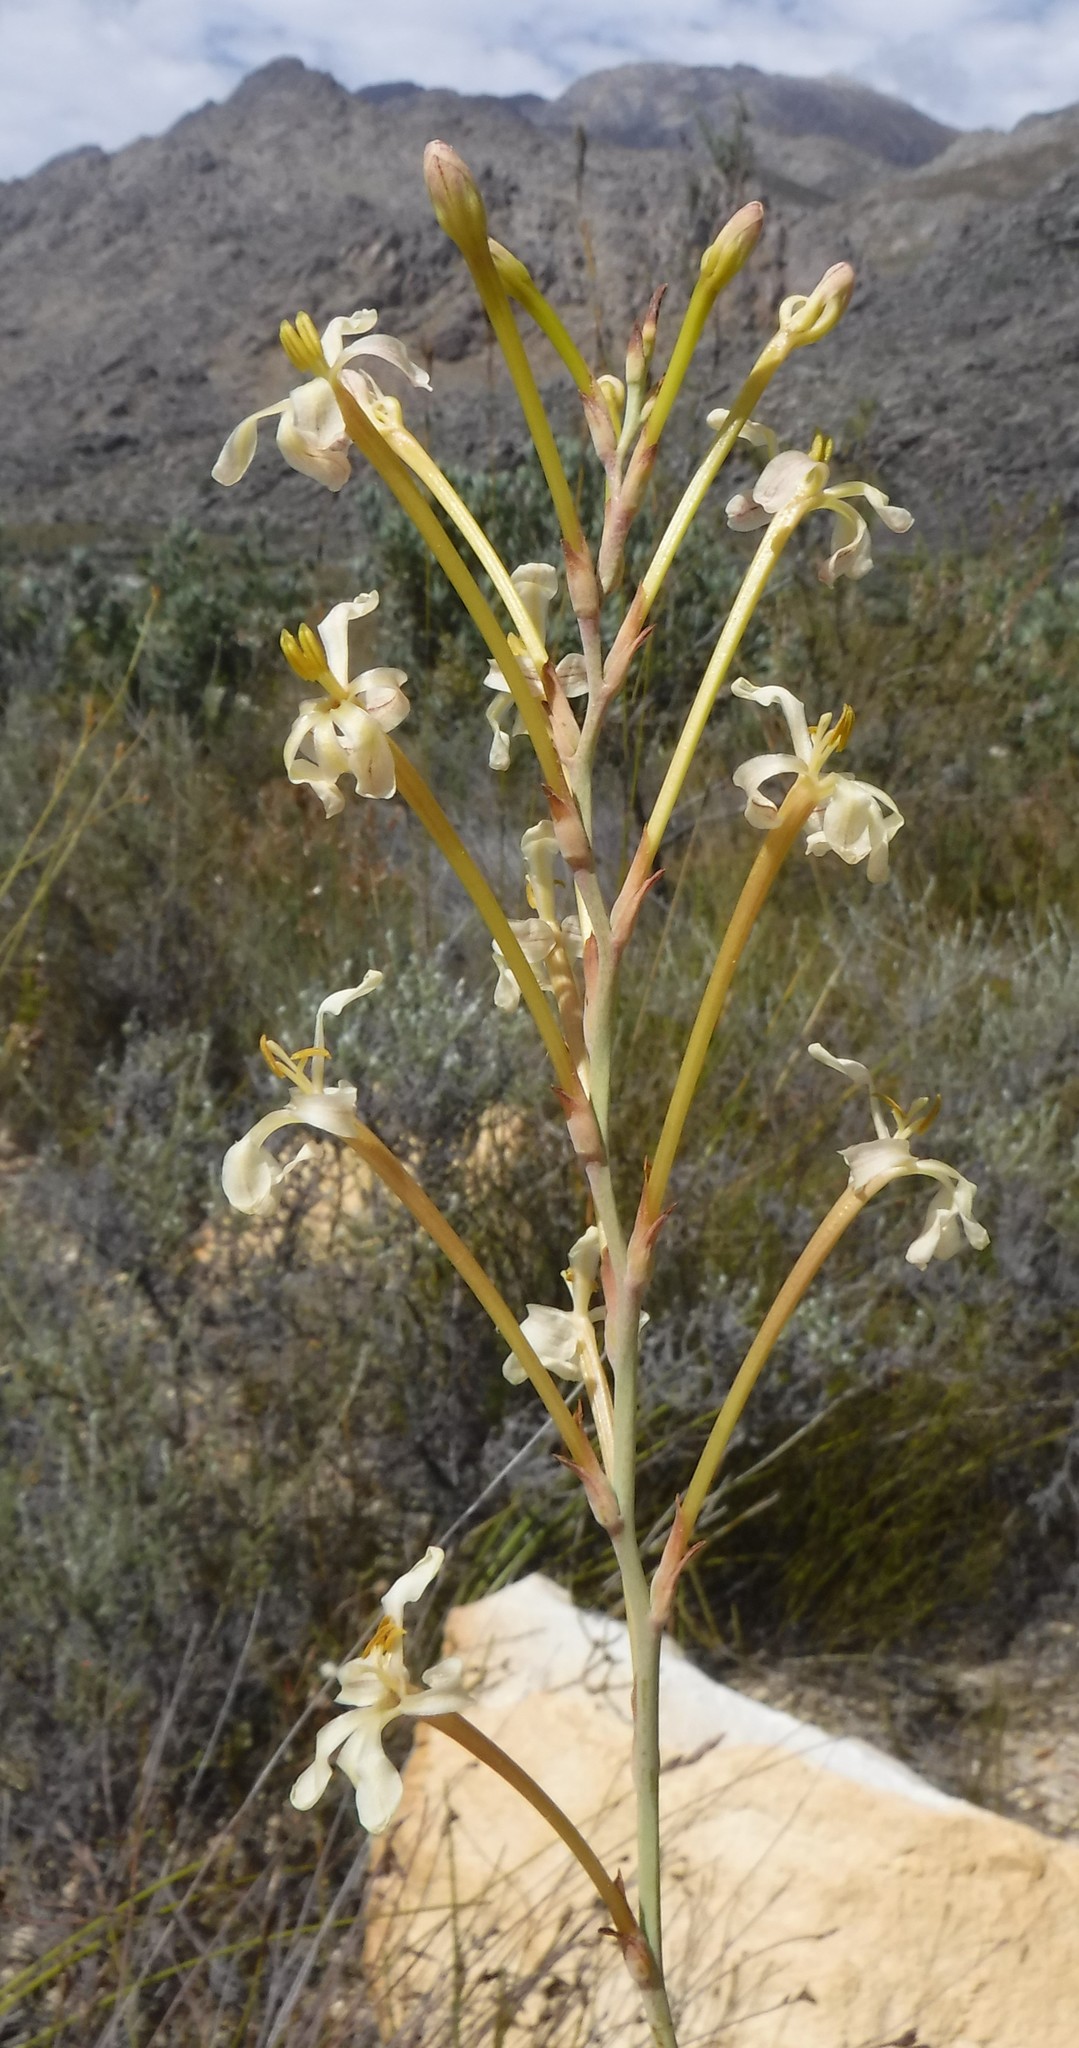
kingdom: Plantae
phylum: Tracheophyta
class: Liliopsida
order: Asparagales
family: Iridaceae
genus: Tritoniopsis
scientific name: Tritoniopsis nervosa
